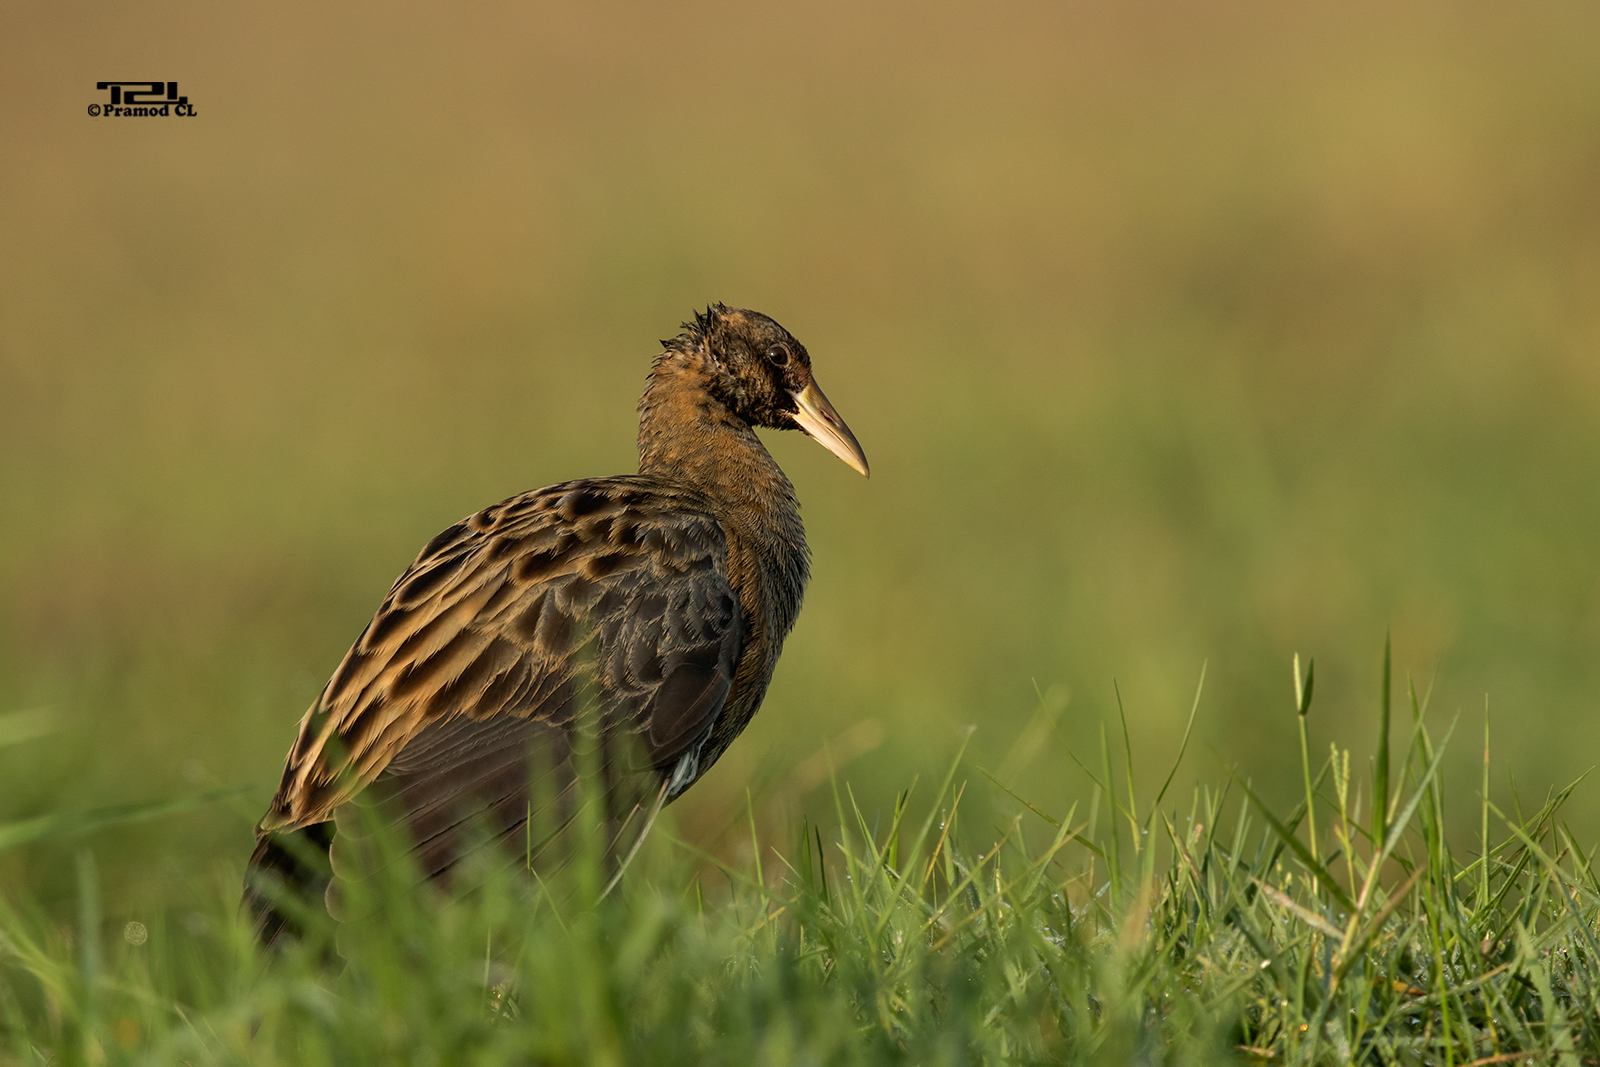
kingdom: Animalia
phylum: Chordata
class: Aves
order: Gruiformes
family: Rallidae
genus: Gallicrex
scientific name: Gallicrex cinerea
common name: Watercock
